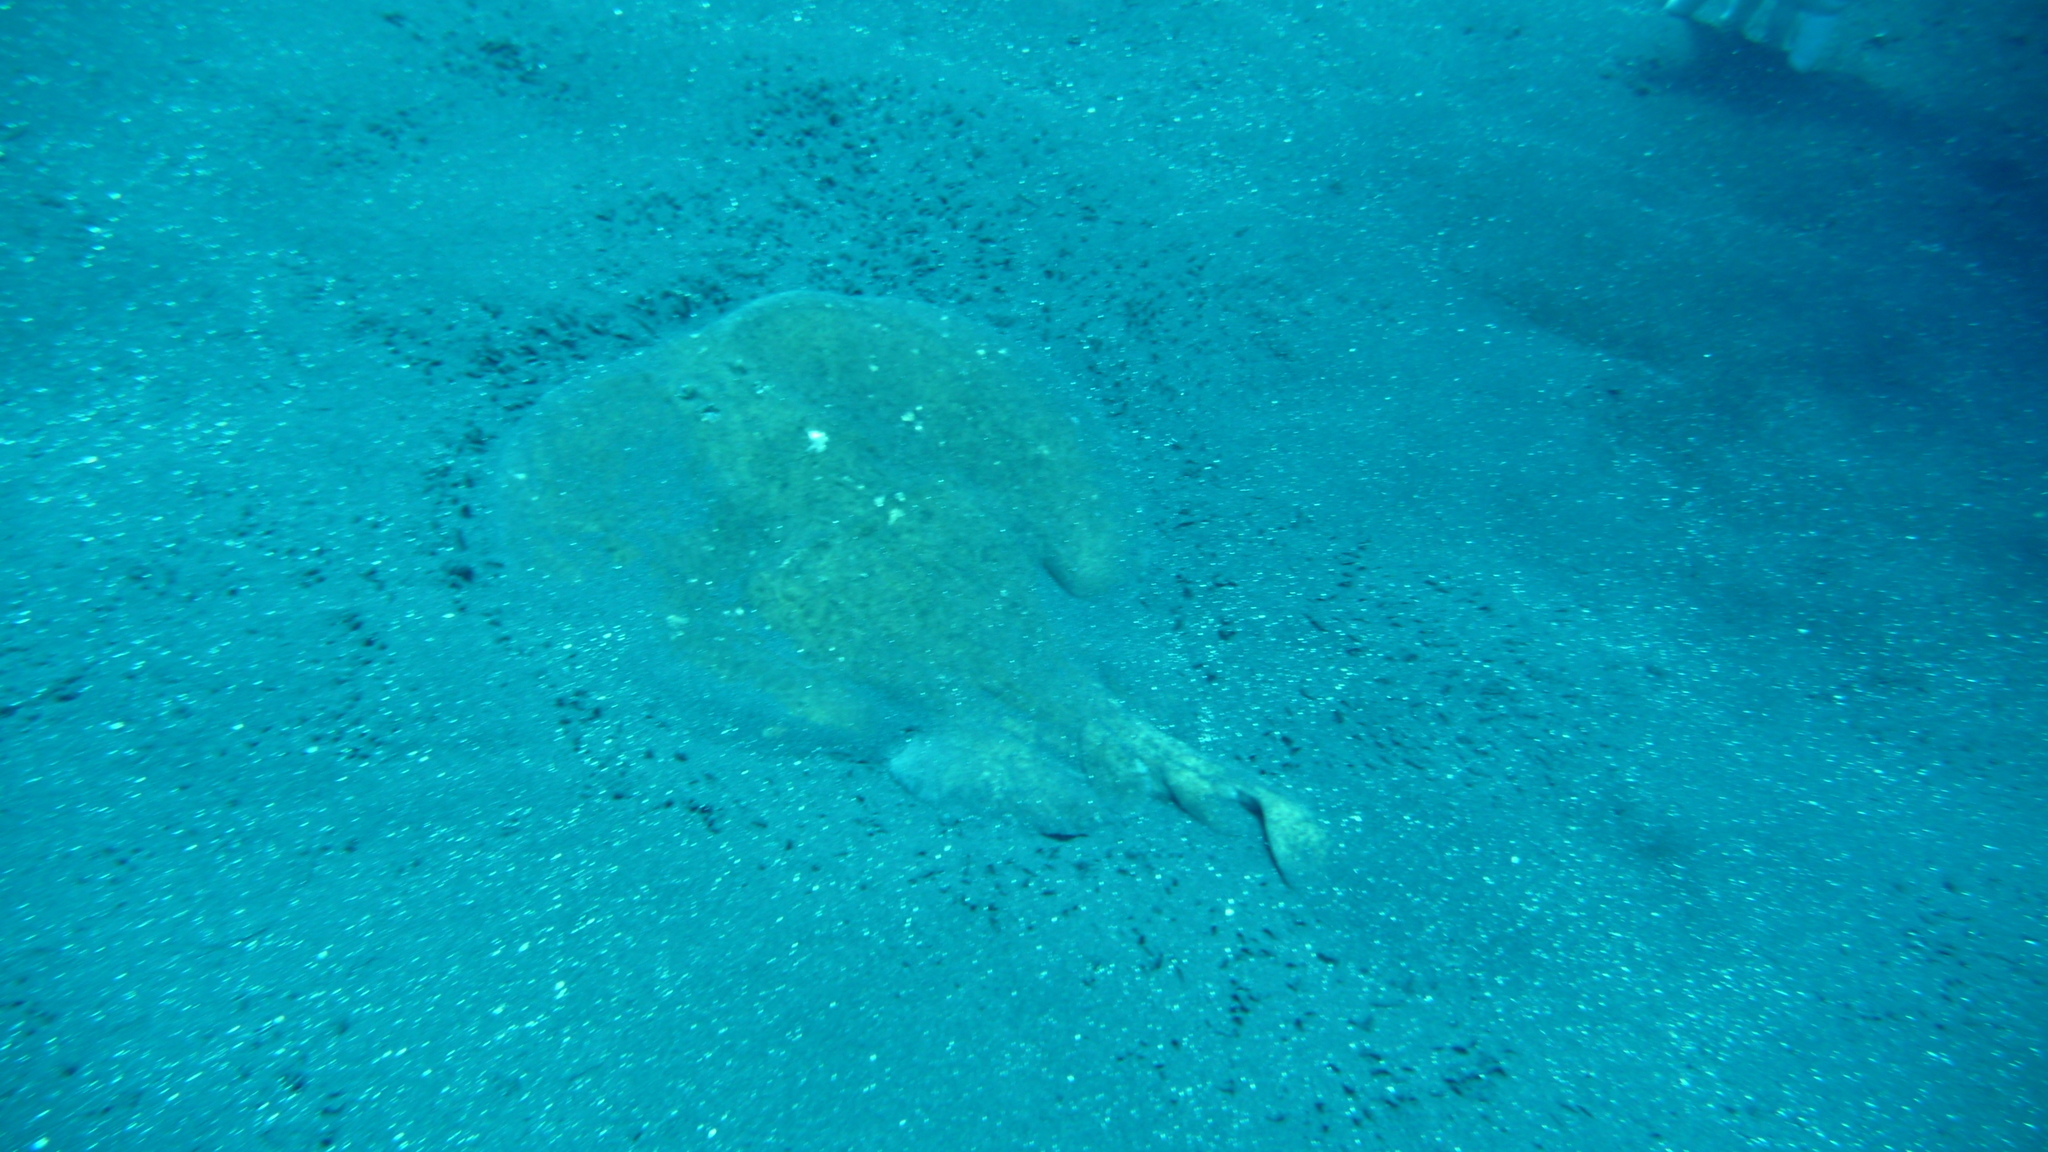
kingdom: Animalia
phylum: Chordata
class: Elasmobranchii
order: Torpediniformes
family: Torpedinidae
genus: Torpedo
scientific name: Torpedo marmorata
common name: Marbled electric ray
